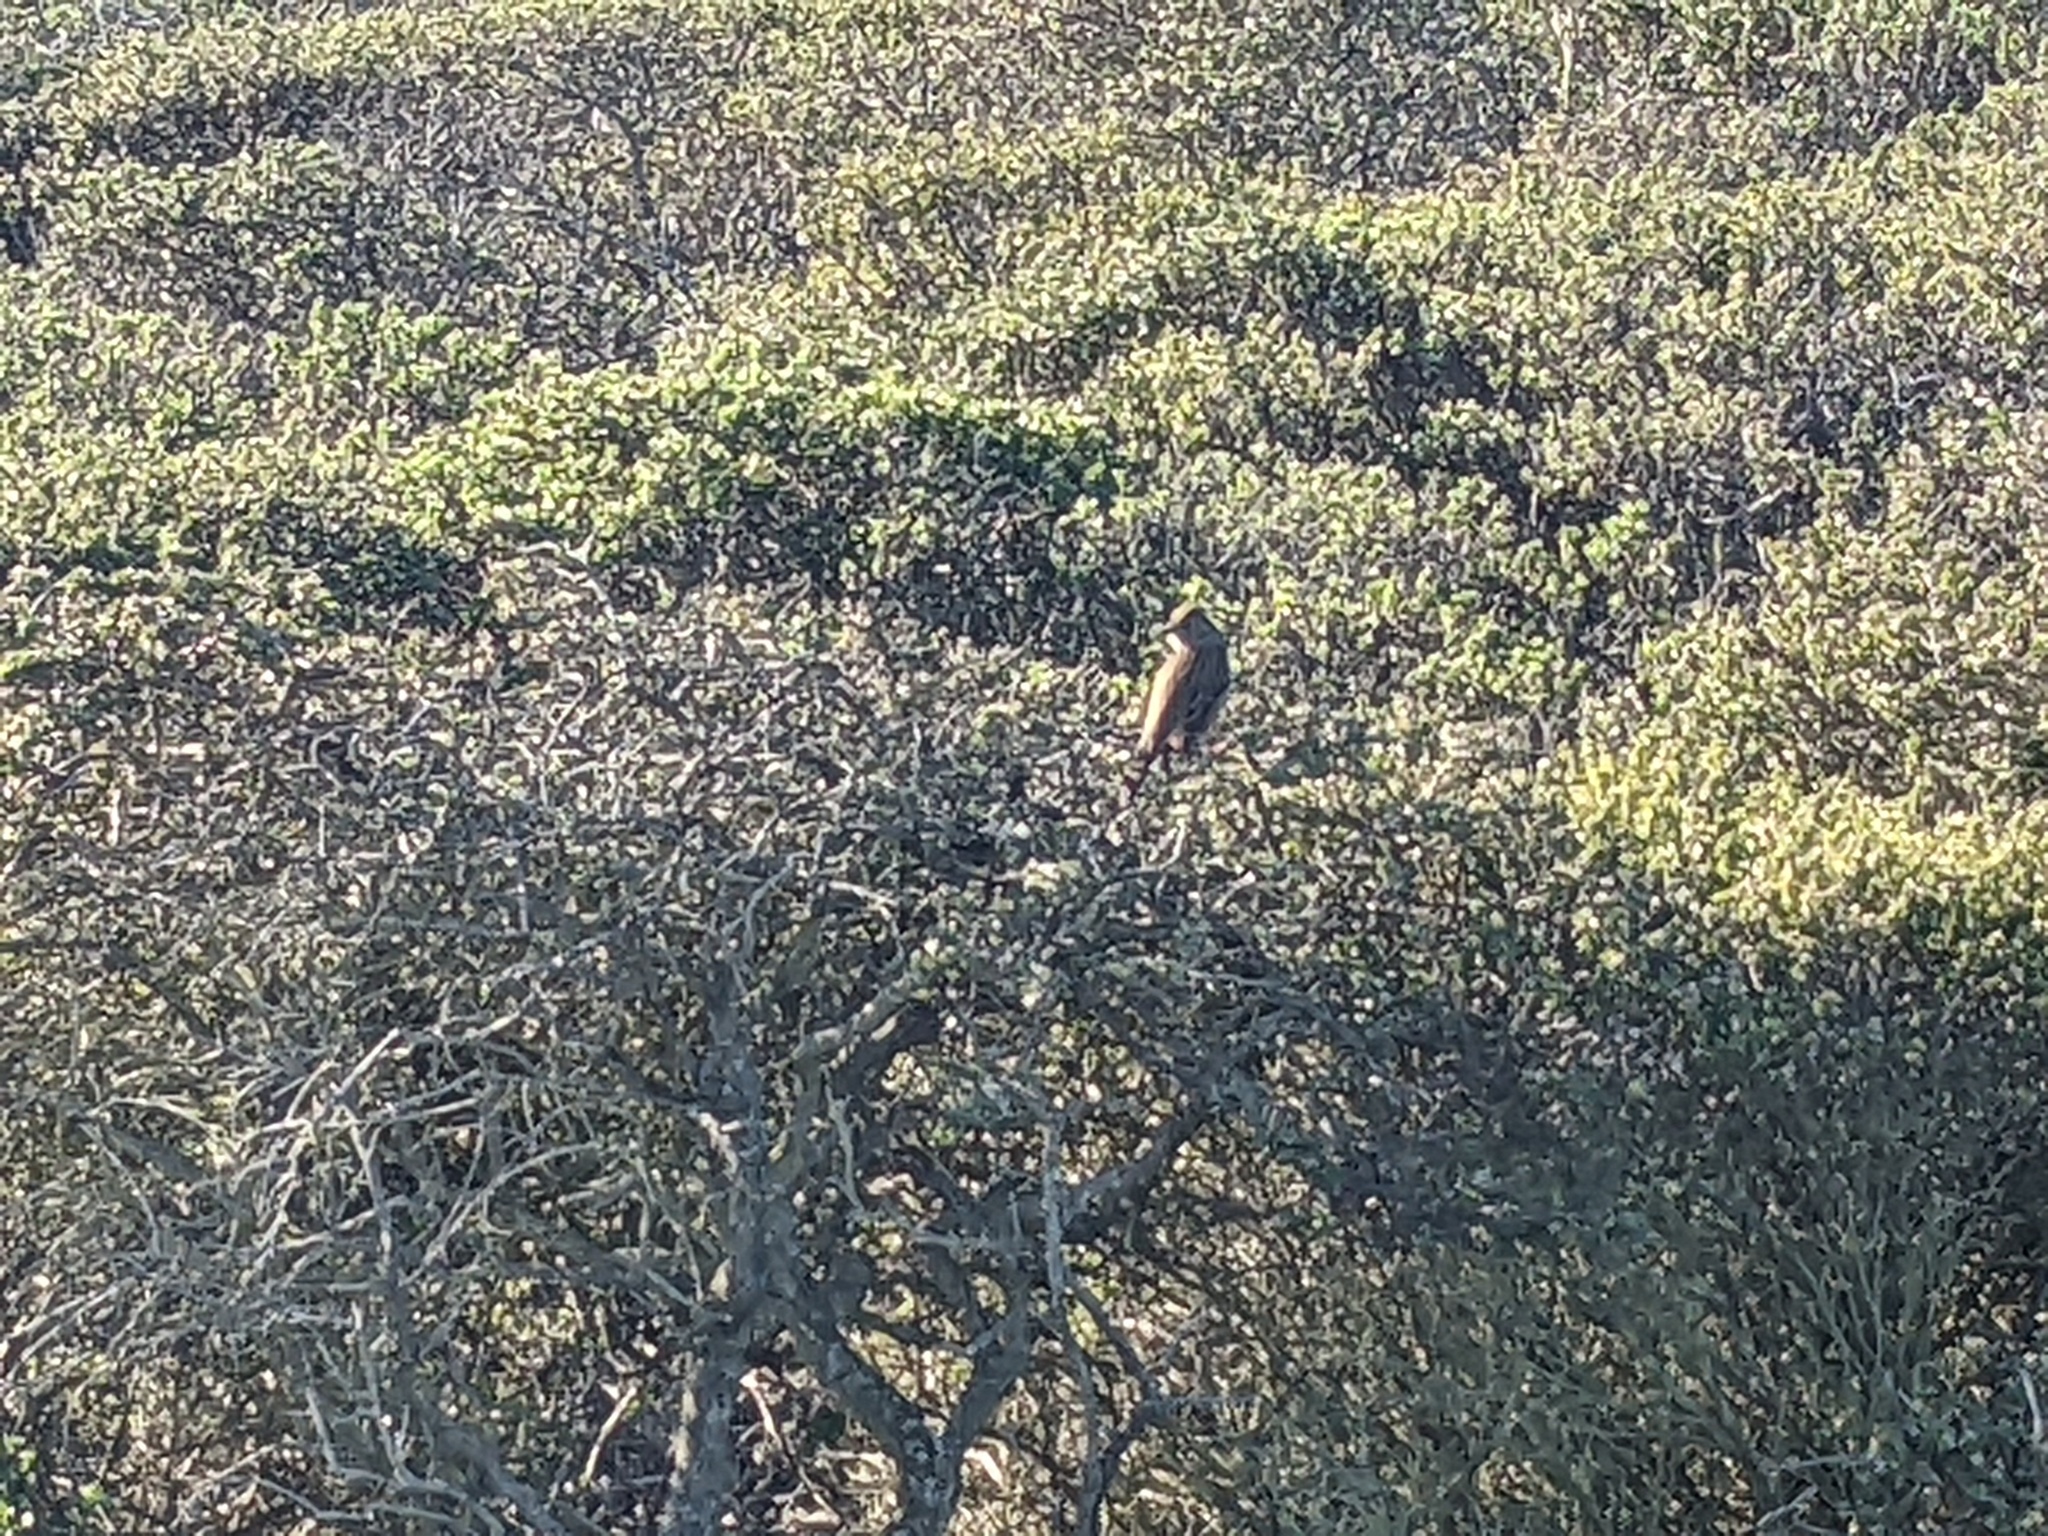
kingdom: Animalia
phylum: Chordata
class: Aves
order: Passeriformes
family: Passerellidae
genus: Zonotrichia
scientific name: Zonotrichia
